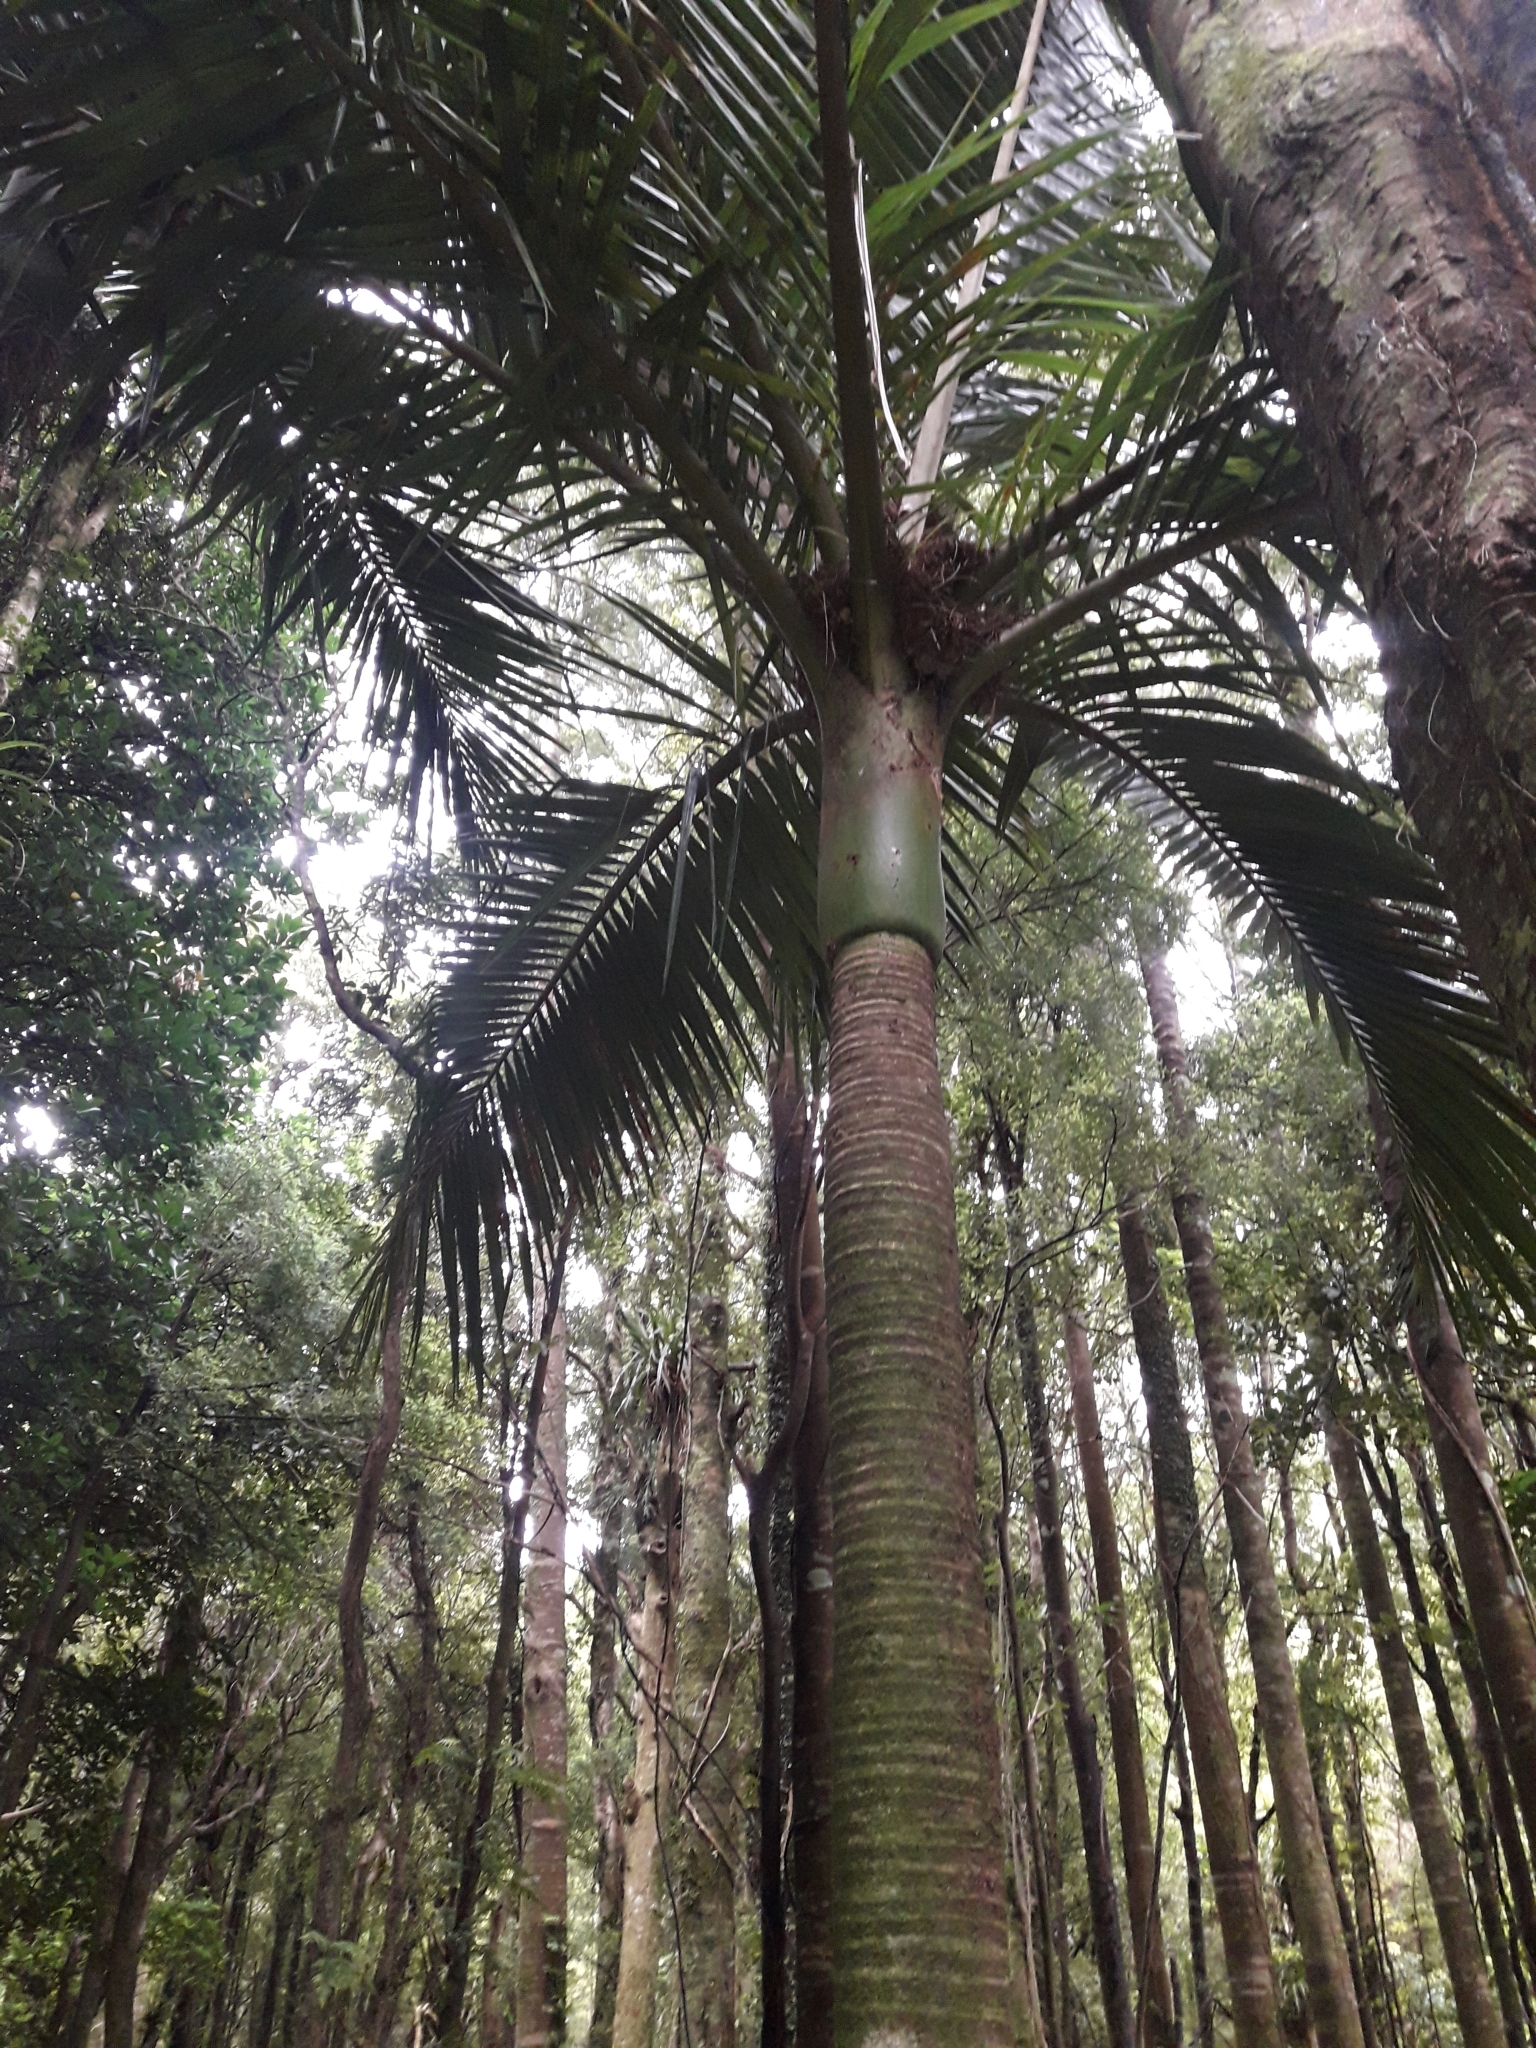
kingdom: Plantae
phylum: Tracheophyta
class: Liliopsida
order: Arecales
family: Arecaceae
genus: Rhopalostylis
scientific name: Rhopalostylis sapida
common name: Feather-duster palm
